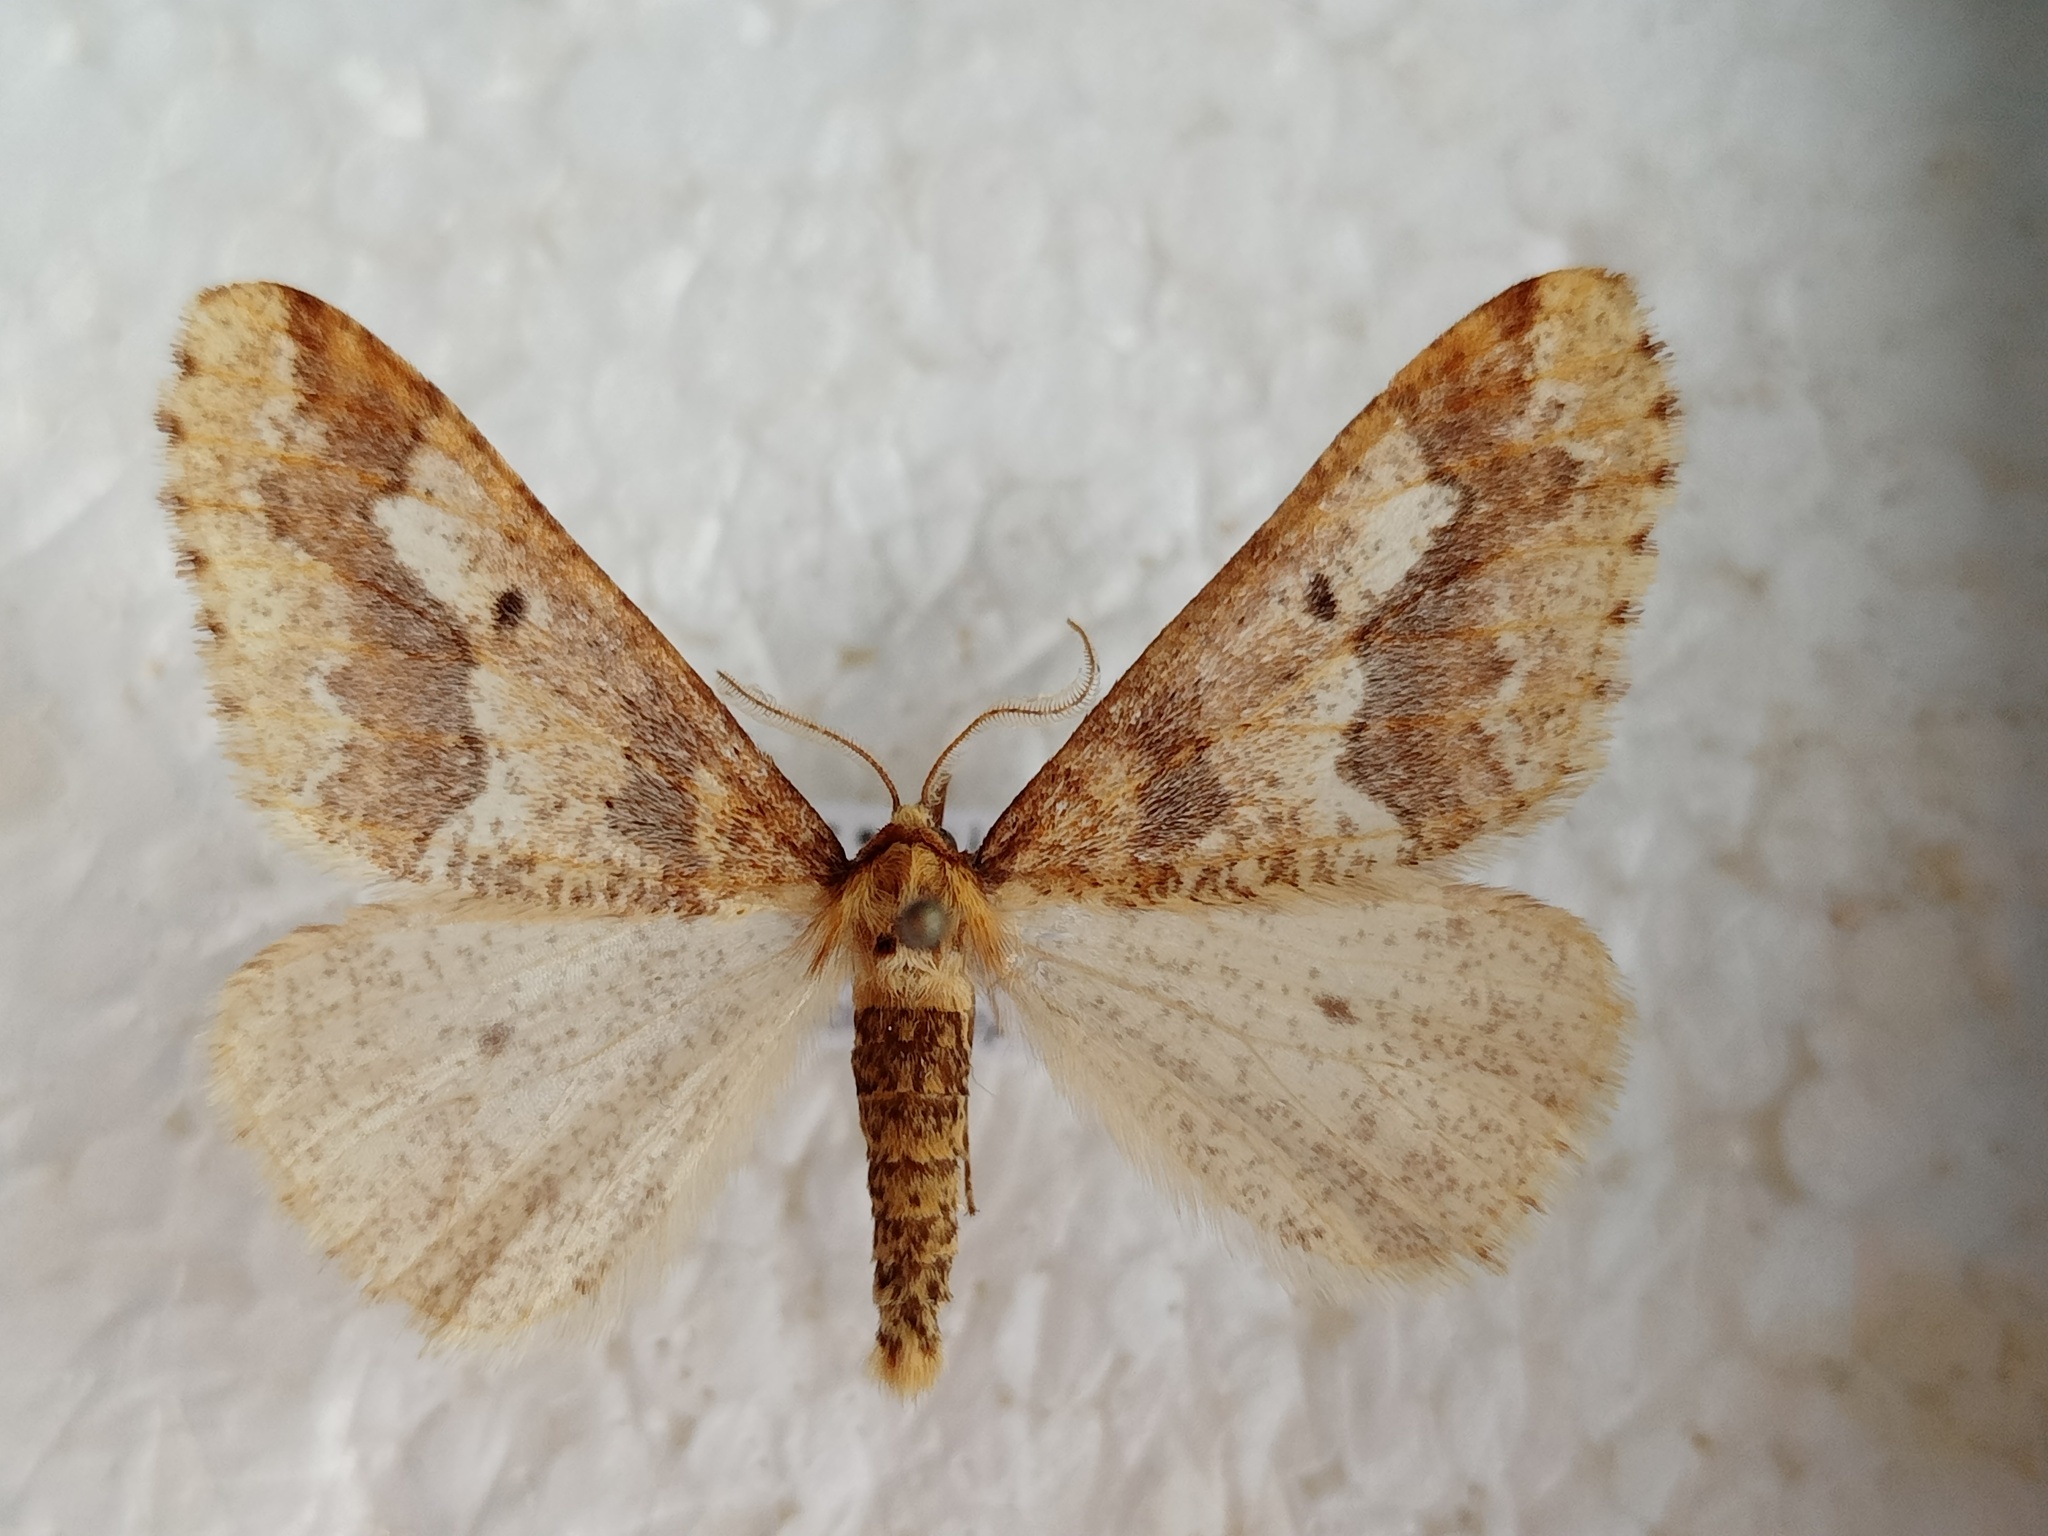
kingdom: Animalia
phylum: Arthropoda
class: Insecta
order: Lepidoptera
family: Geometridae
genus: Erannis
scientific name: Erannis defoliaria
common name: Mottled umber
